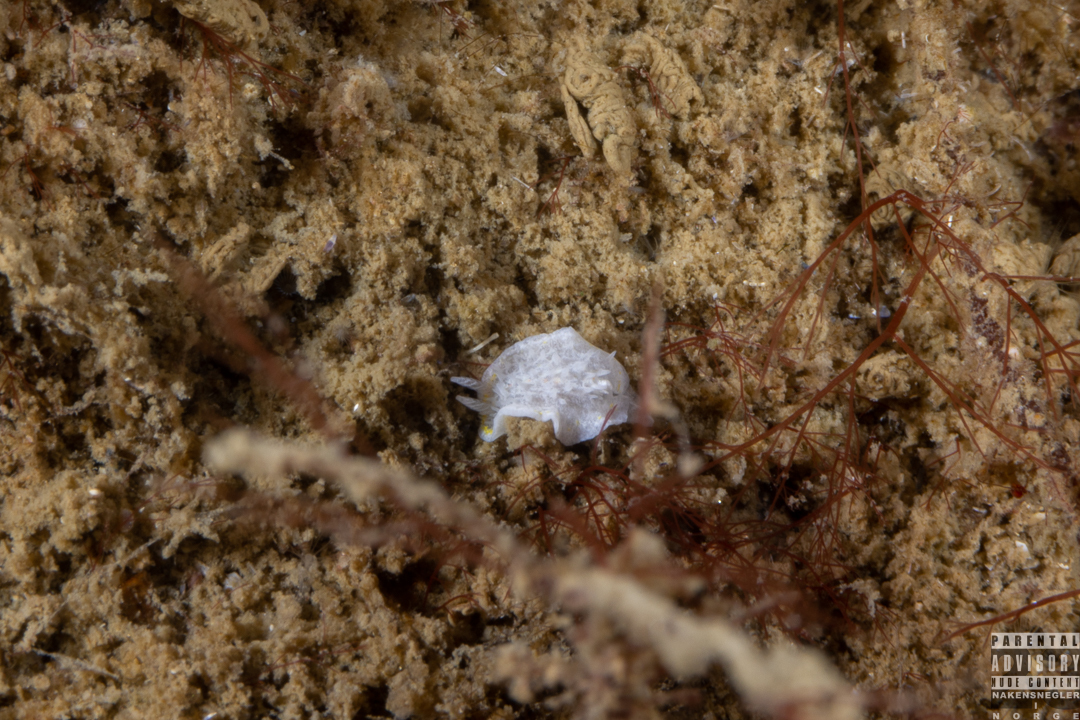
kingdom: Animalia
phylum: Mollusca
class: Gastropoda
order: Nudibranchia
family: Calycidorididae
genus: Diaphorodoris
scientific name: Diaphorodoris luteocincta
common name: Fried egg nudibranch
